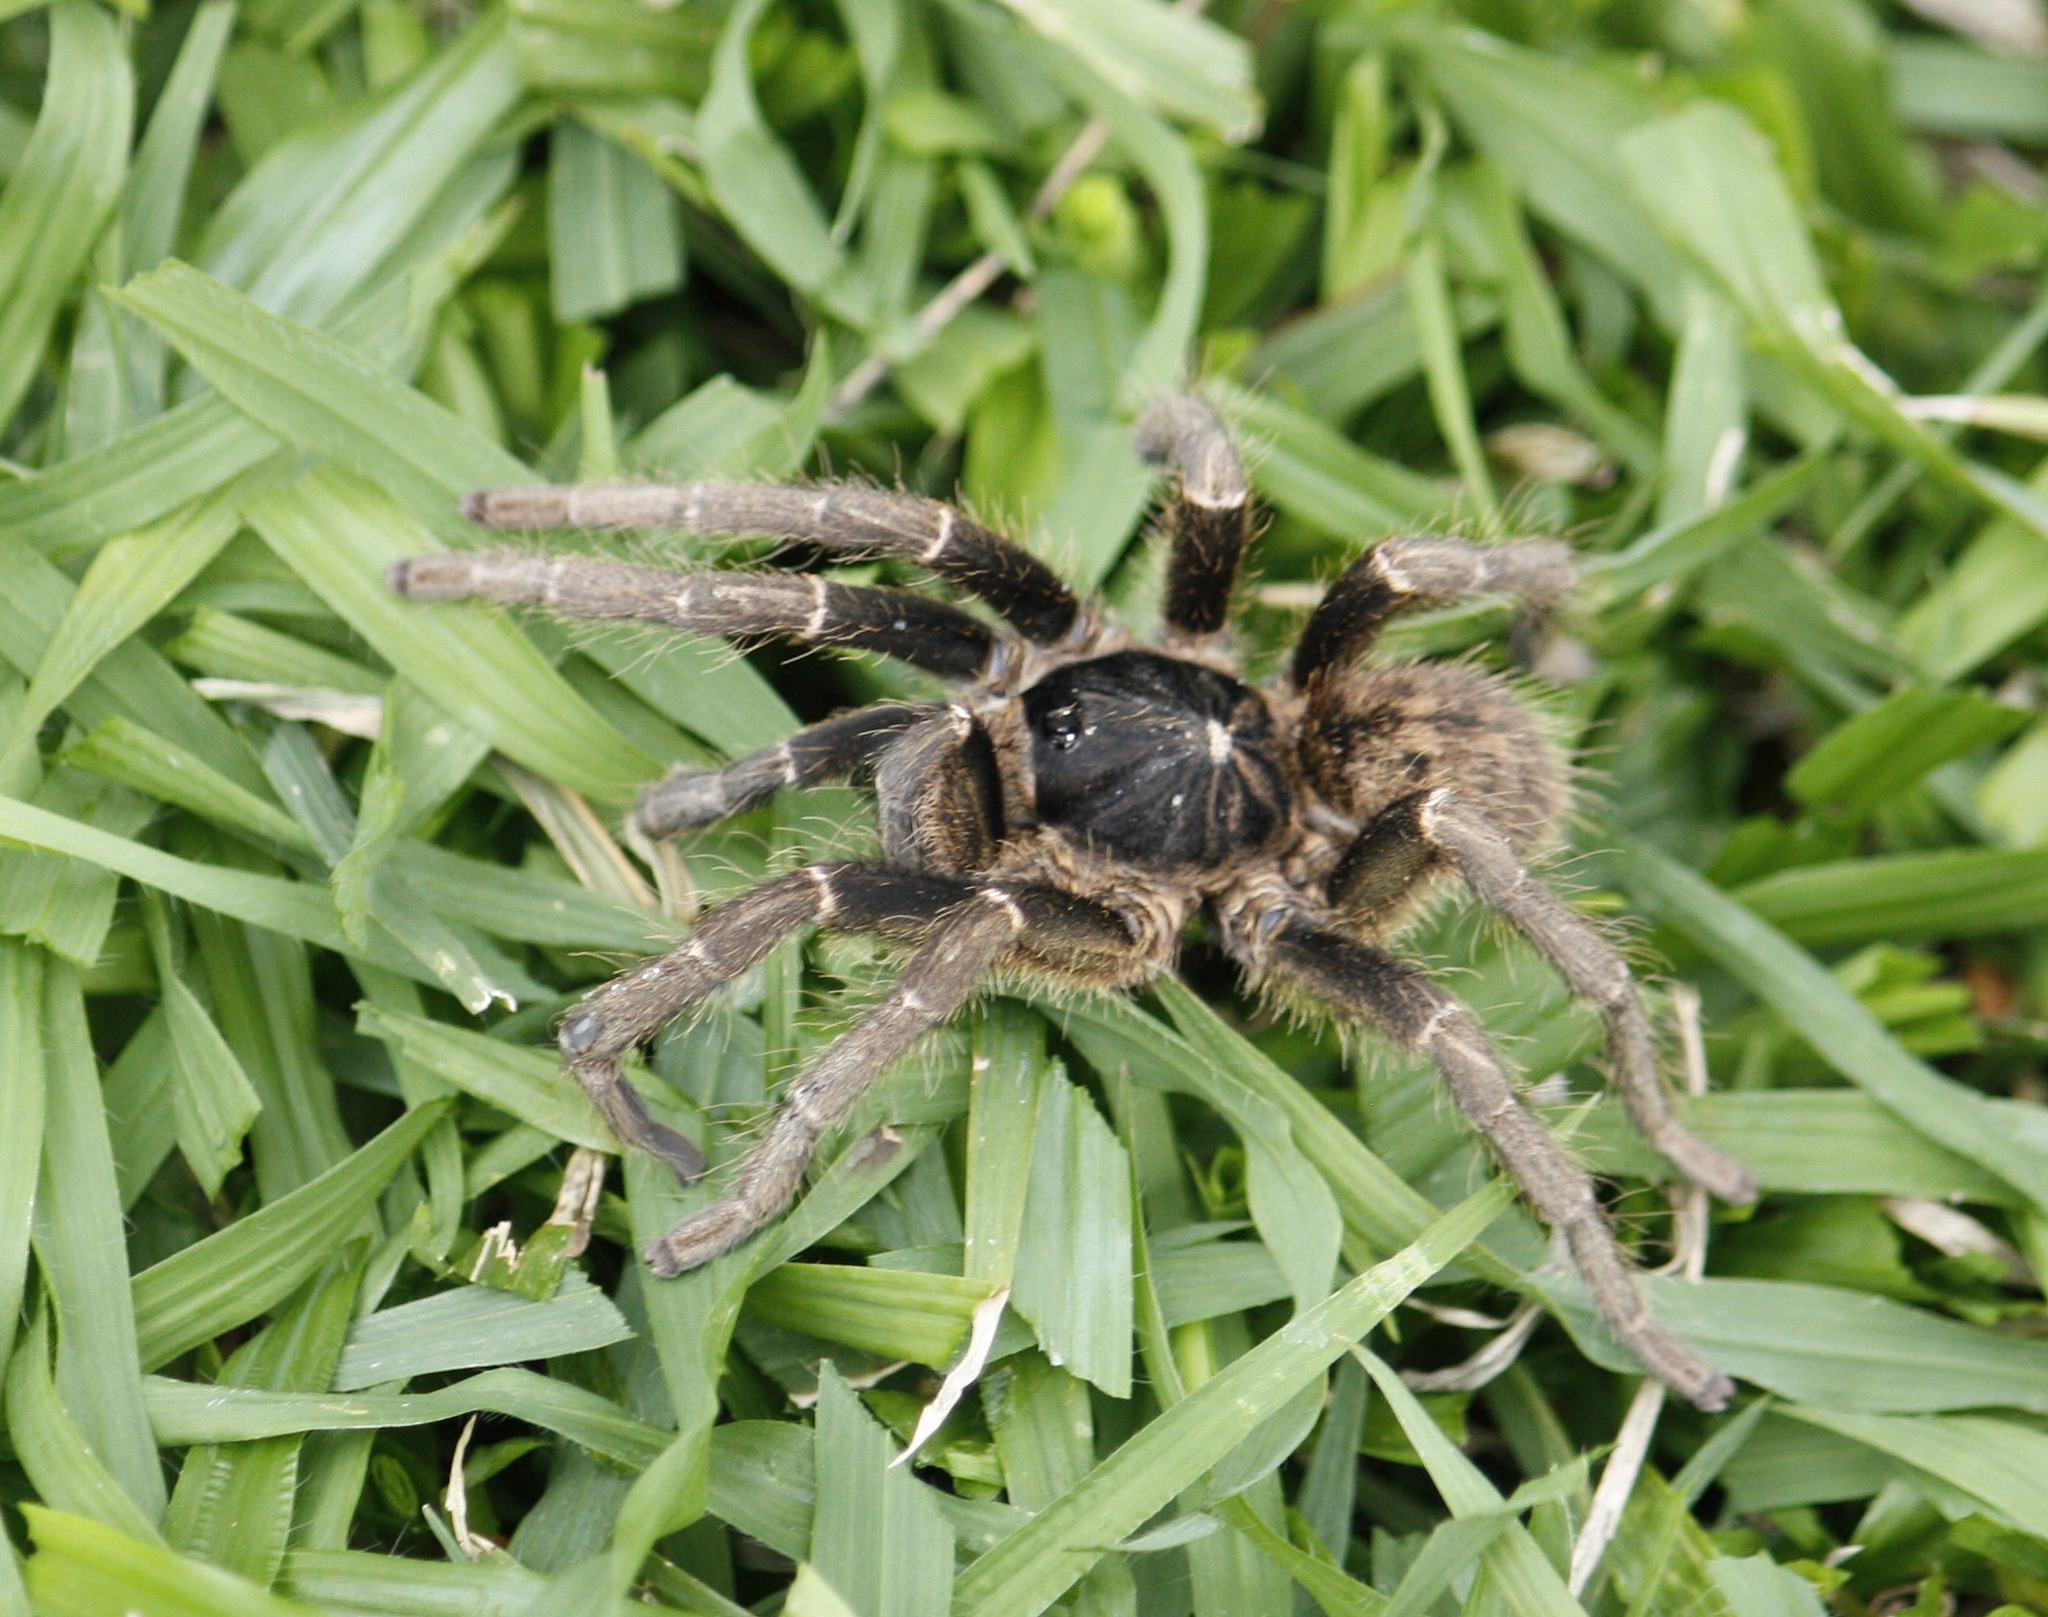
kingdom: Animalia
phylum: Arthropoda
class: Arachnida
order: Araneae
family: Theraphosidae
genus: Idiothele
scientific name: Idiothele nigrofulva
